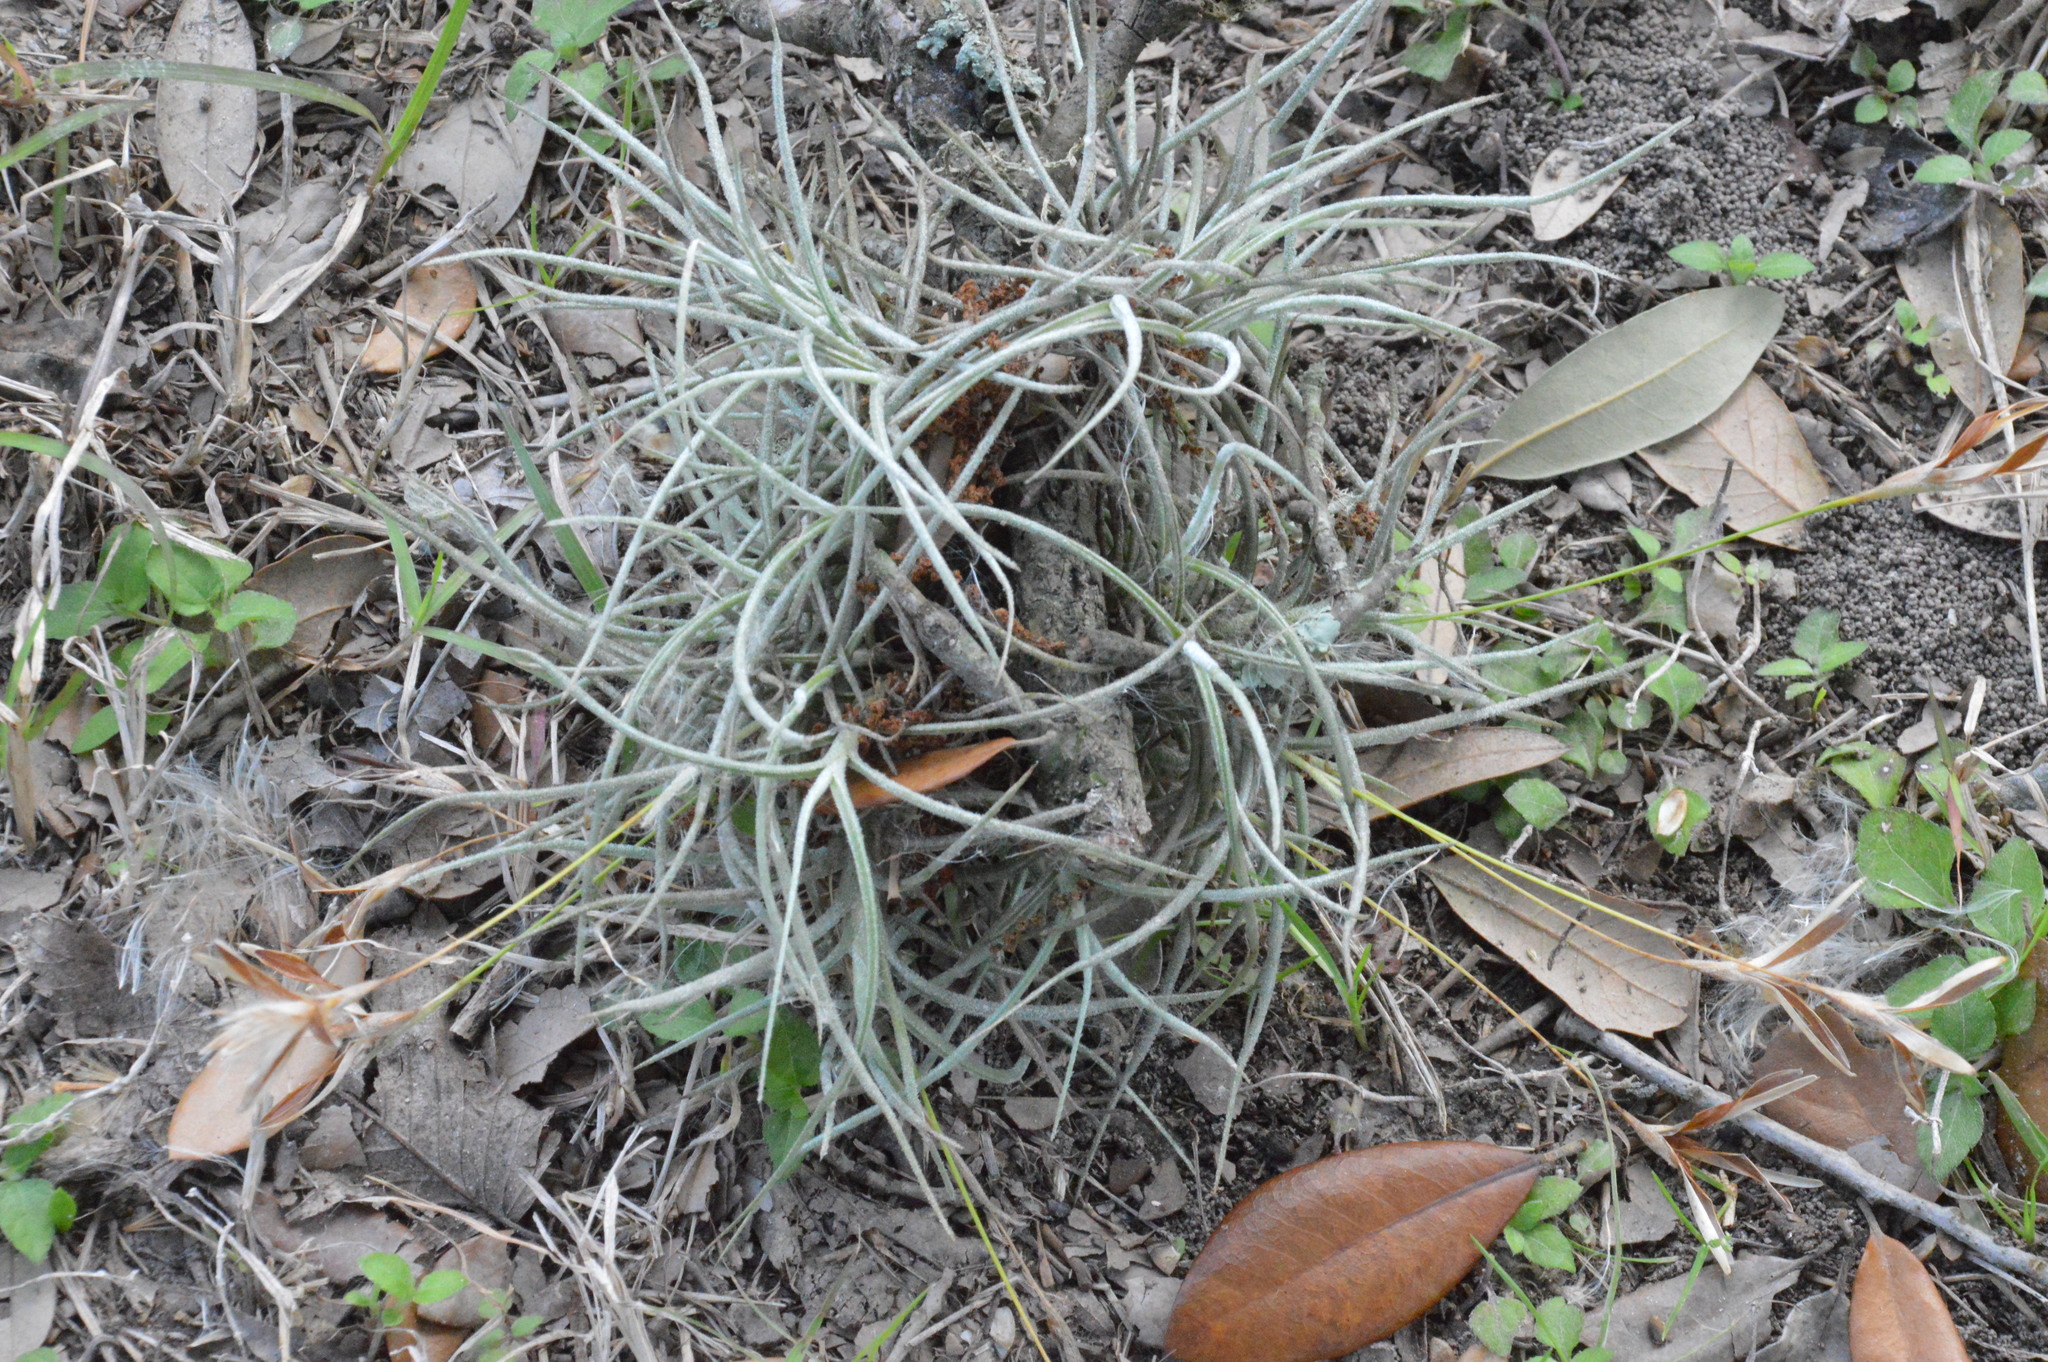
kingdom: Plantae
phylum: Tracheophyta
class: Liliopsida
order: Poales
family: Bromeliaceae
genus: Tillandsia
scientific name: Tillandsia recurvata
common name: Small ballmoss
